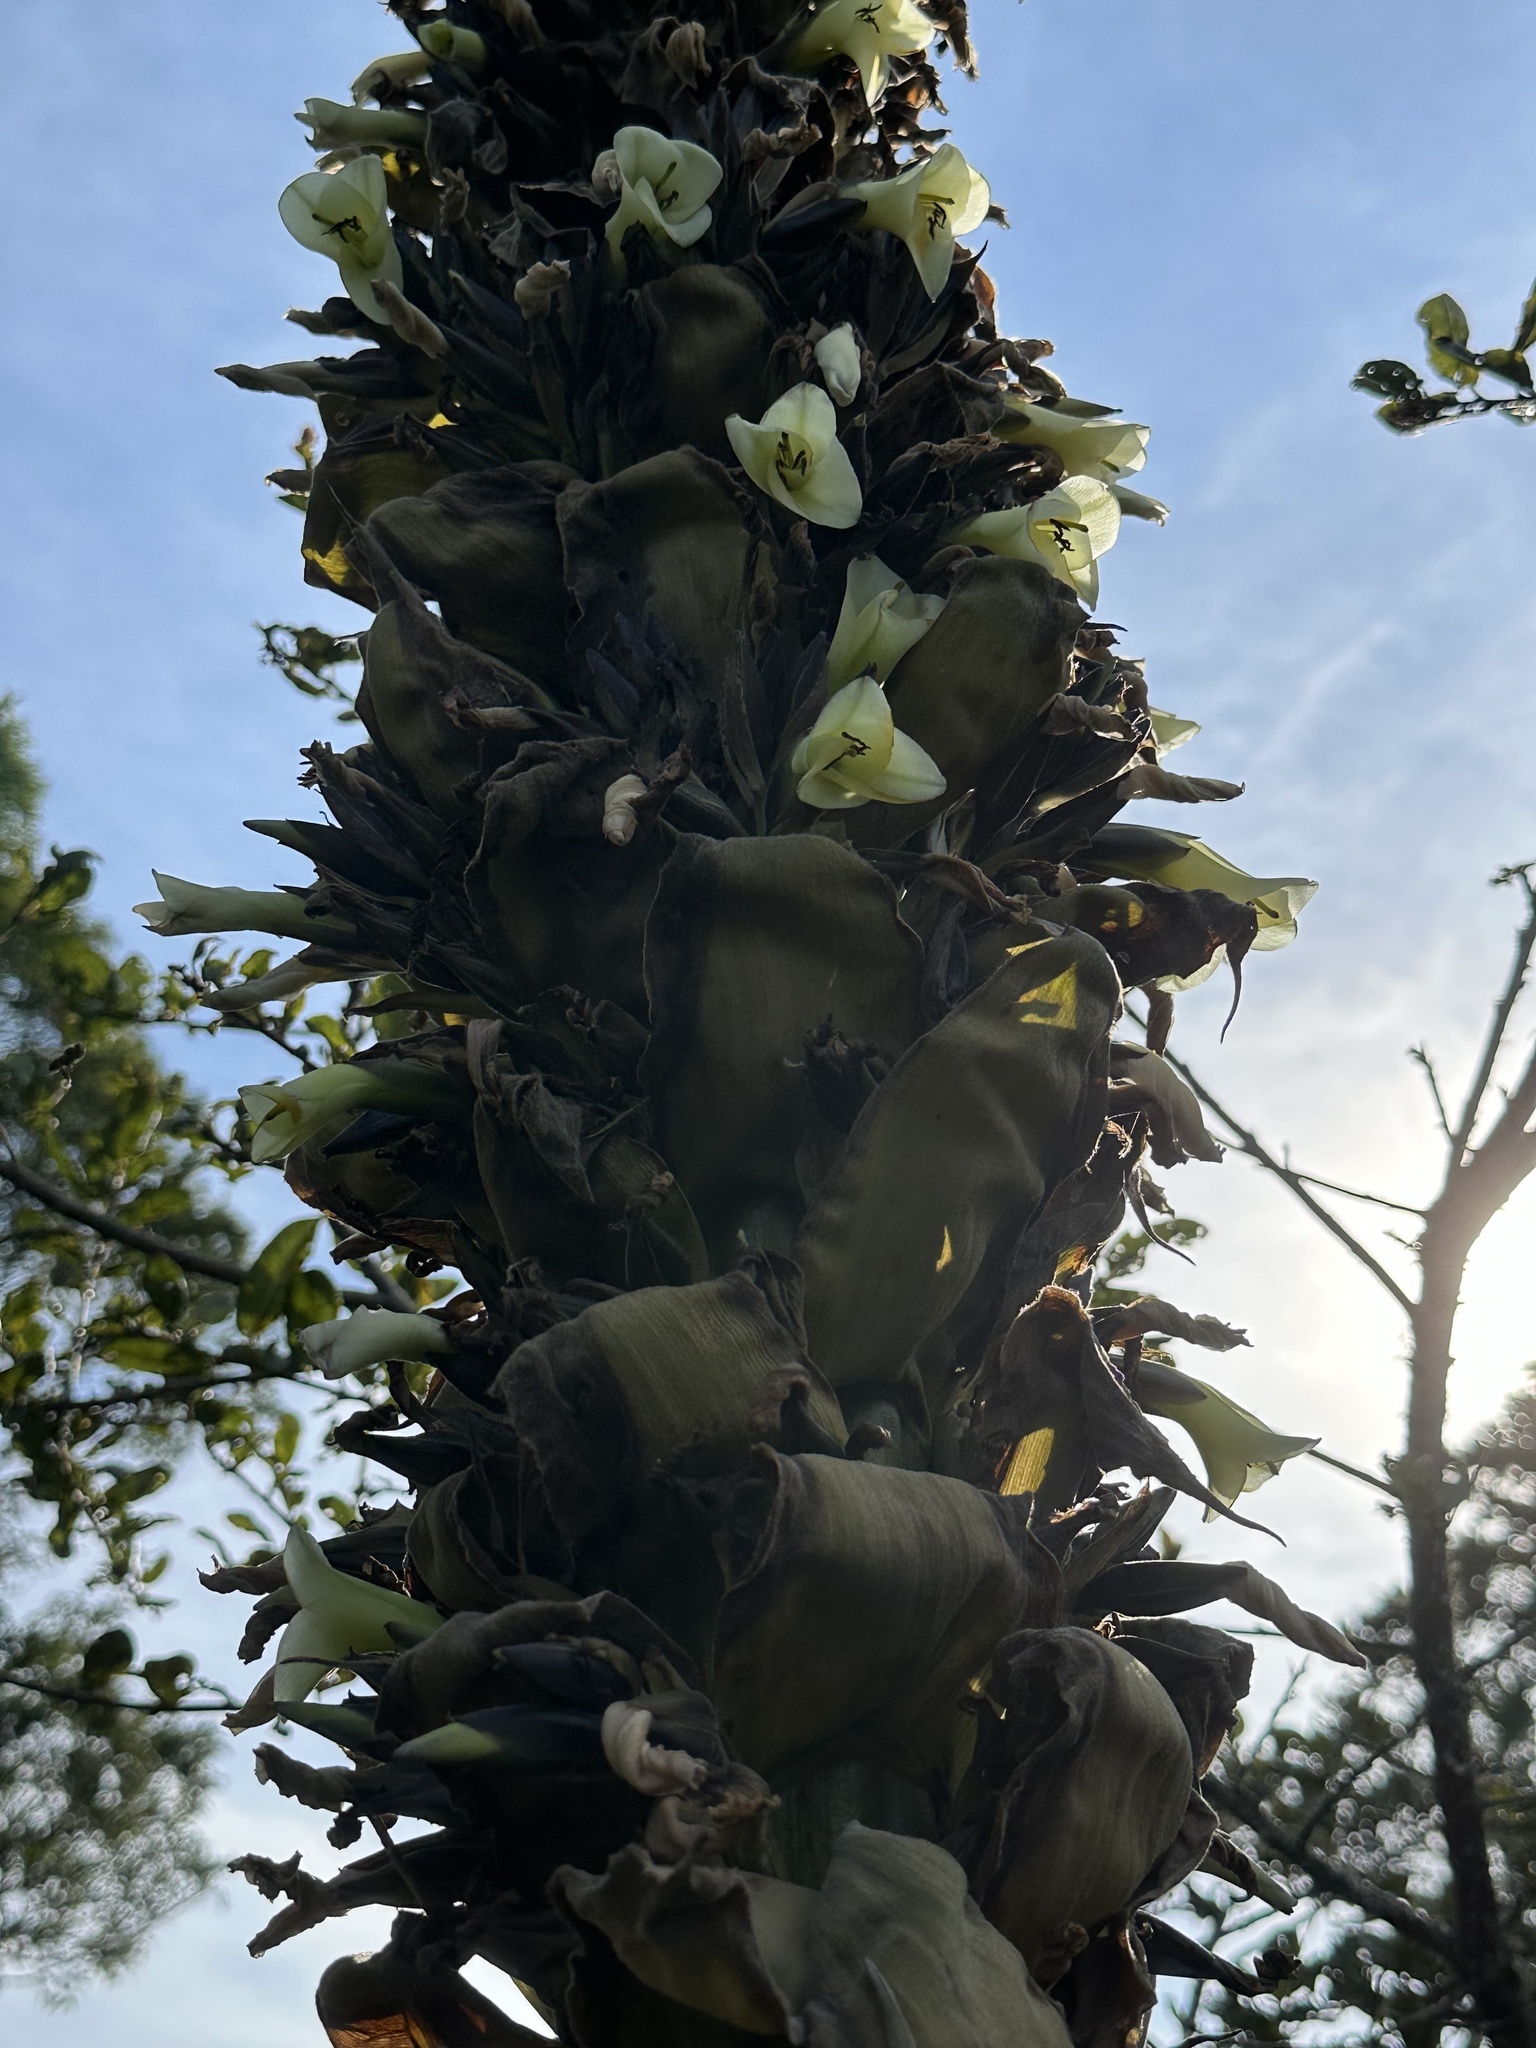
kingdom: Plantae
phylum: Tracheophyta
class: Liliopsida
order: Poales
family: Bromeliaceae
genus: Puya
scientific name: Puya goudotiana
